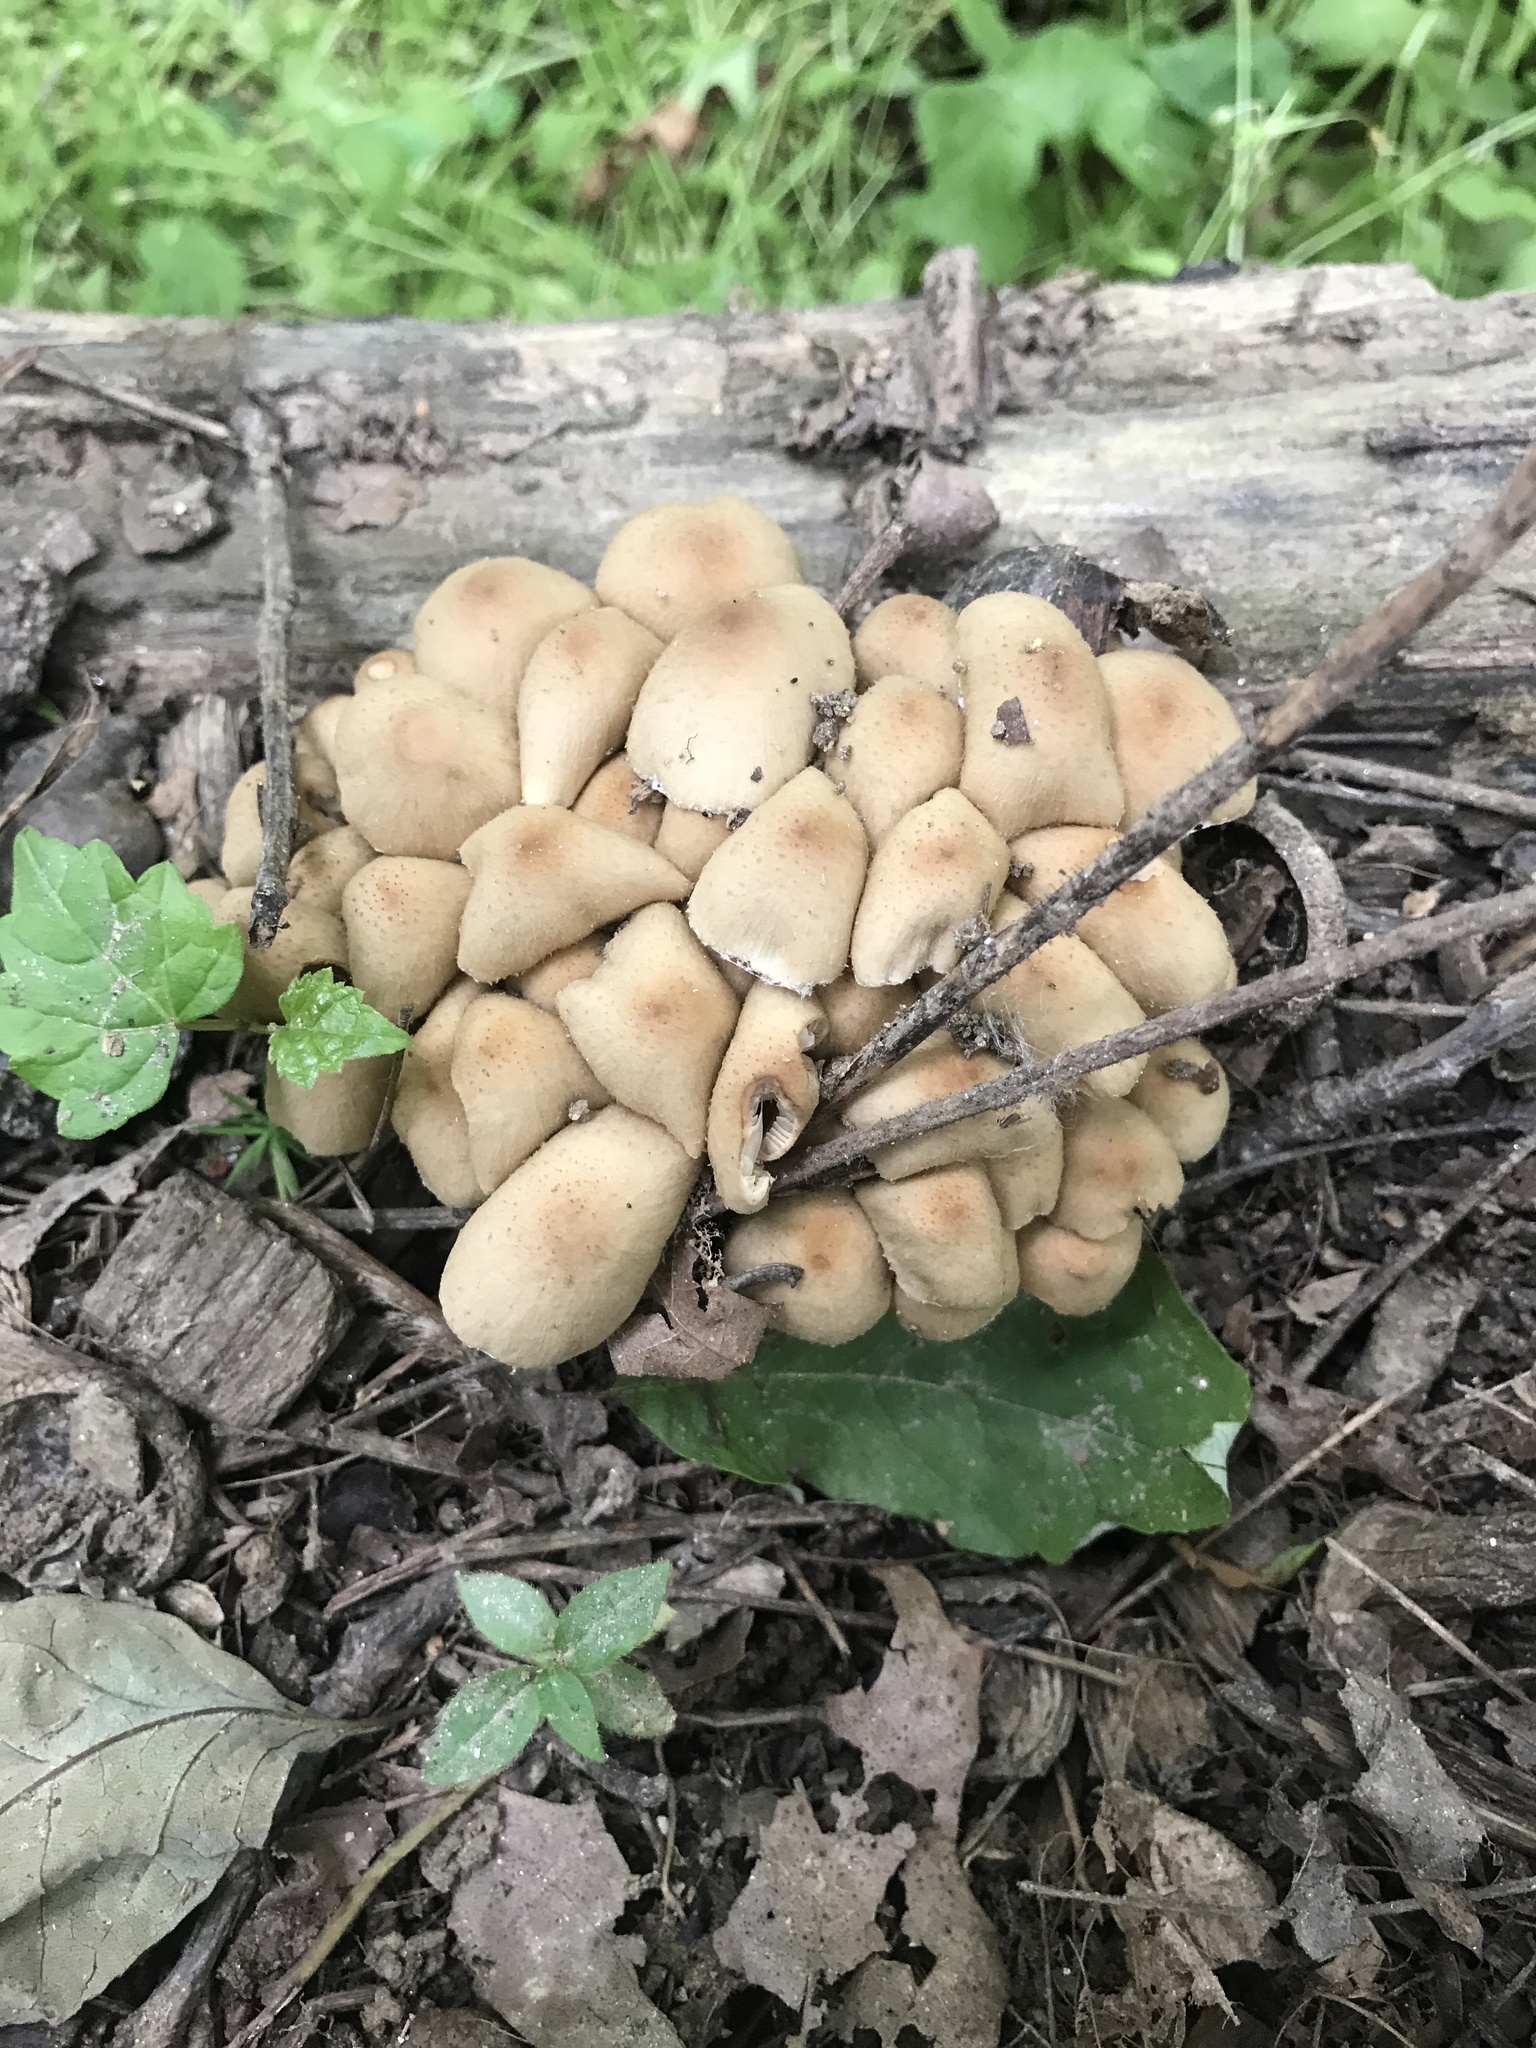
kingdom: Fungi
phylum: Basidiomycota
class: Agaricomycetes
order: Agaricales
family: Psathyrellaceae
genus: Coprinellus
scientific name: Coprinellus micaceus
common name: Glistening ink-cap
